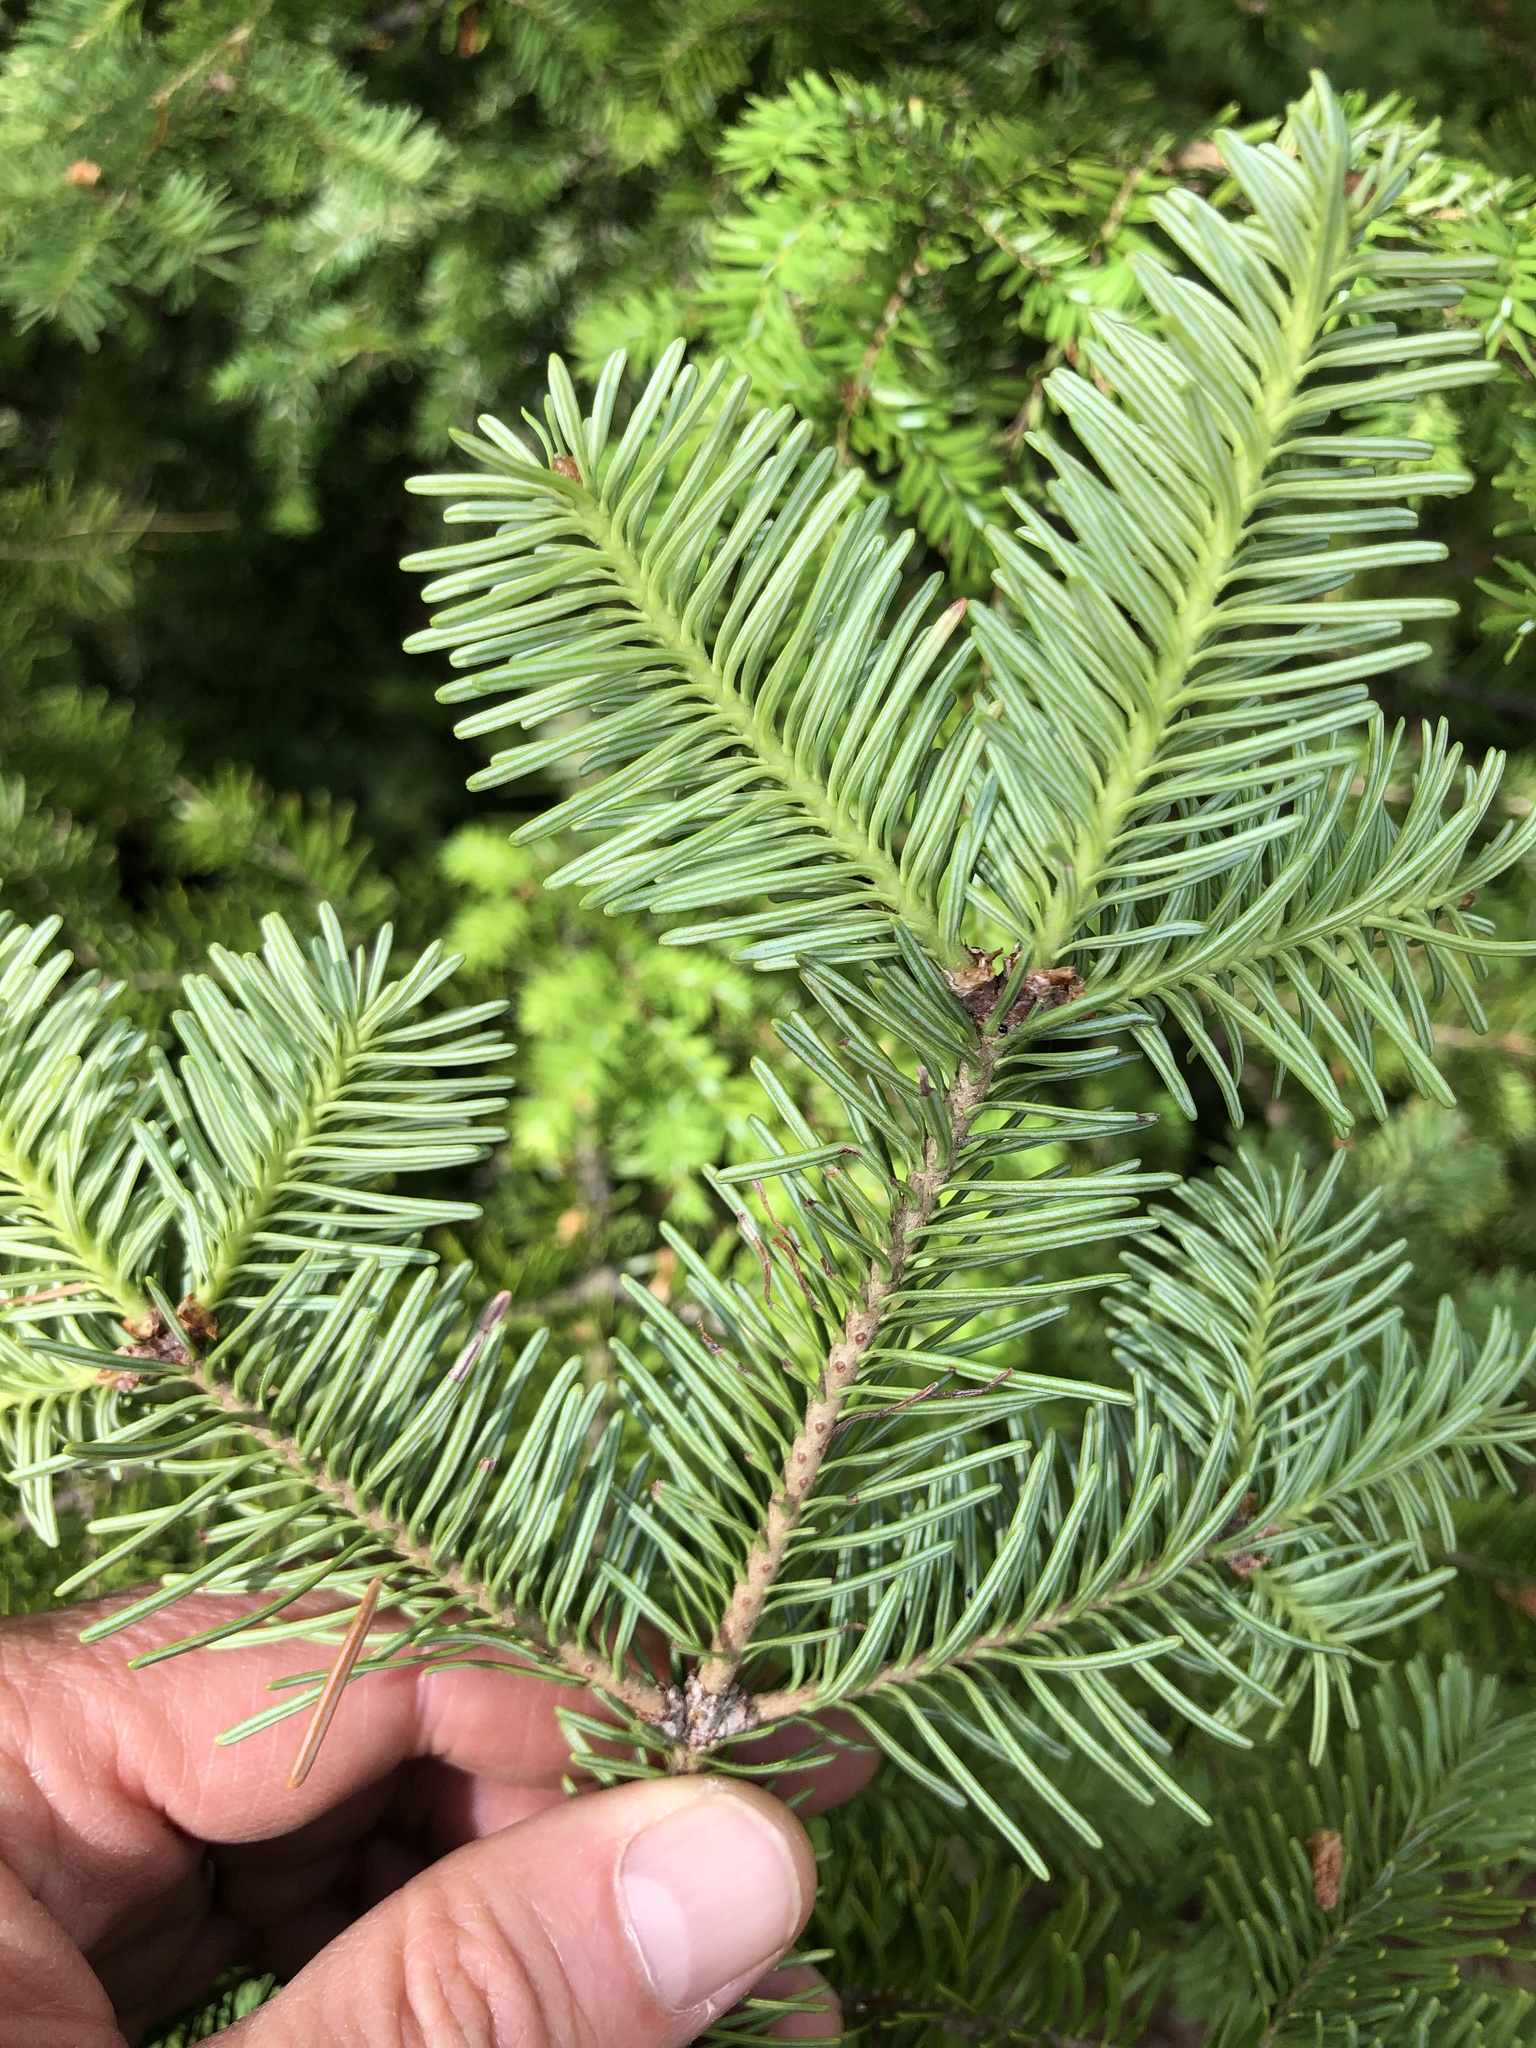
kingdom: Plantae
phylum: Tracheophyta
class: Pinopsida
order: Pinales
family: Pinaceae
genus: Abies
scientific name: Abies balsamea
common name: Balsam fir
